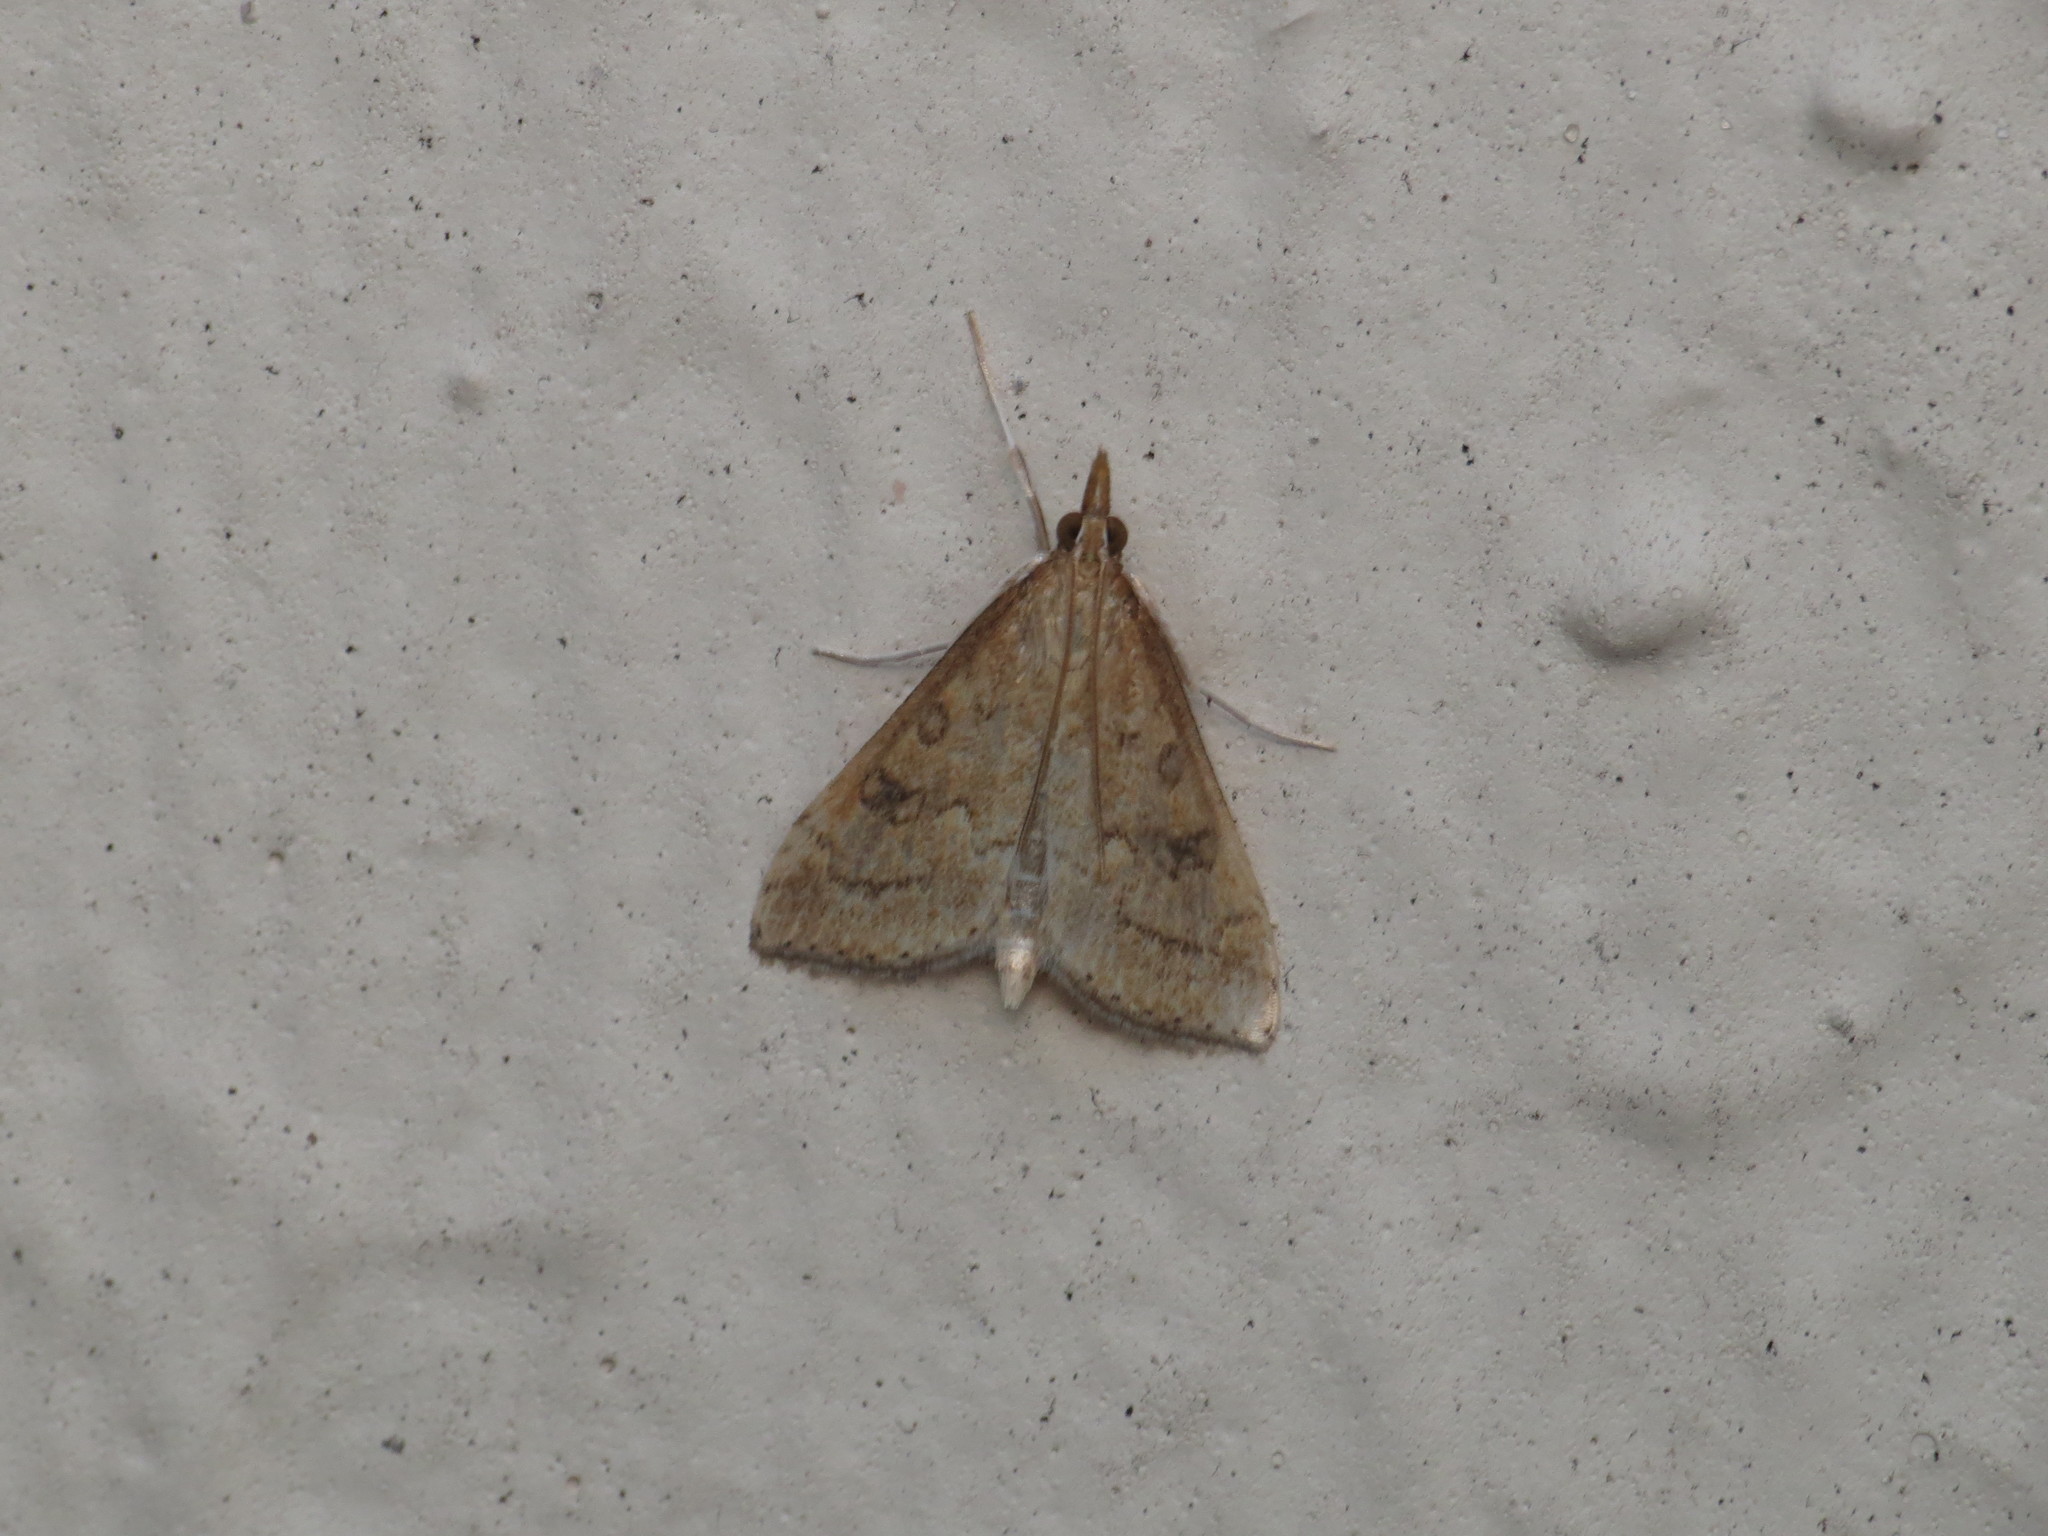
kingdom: Animalia
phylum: Arthropoda
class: Insecta
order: Lepidoptera
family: Crambidae
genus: Udea
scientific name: Udea rubigalis
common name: Celery leaftier moth
